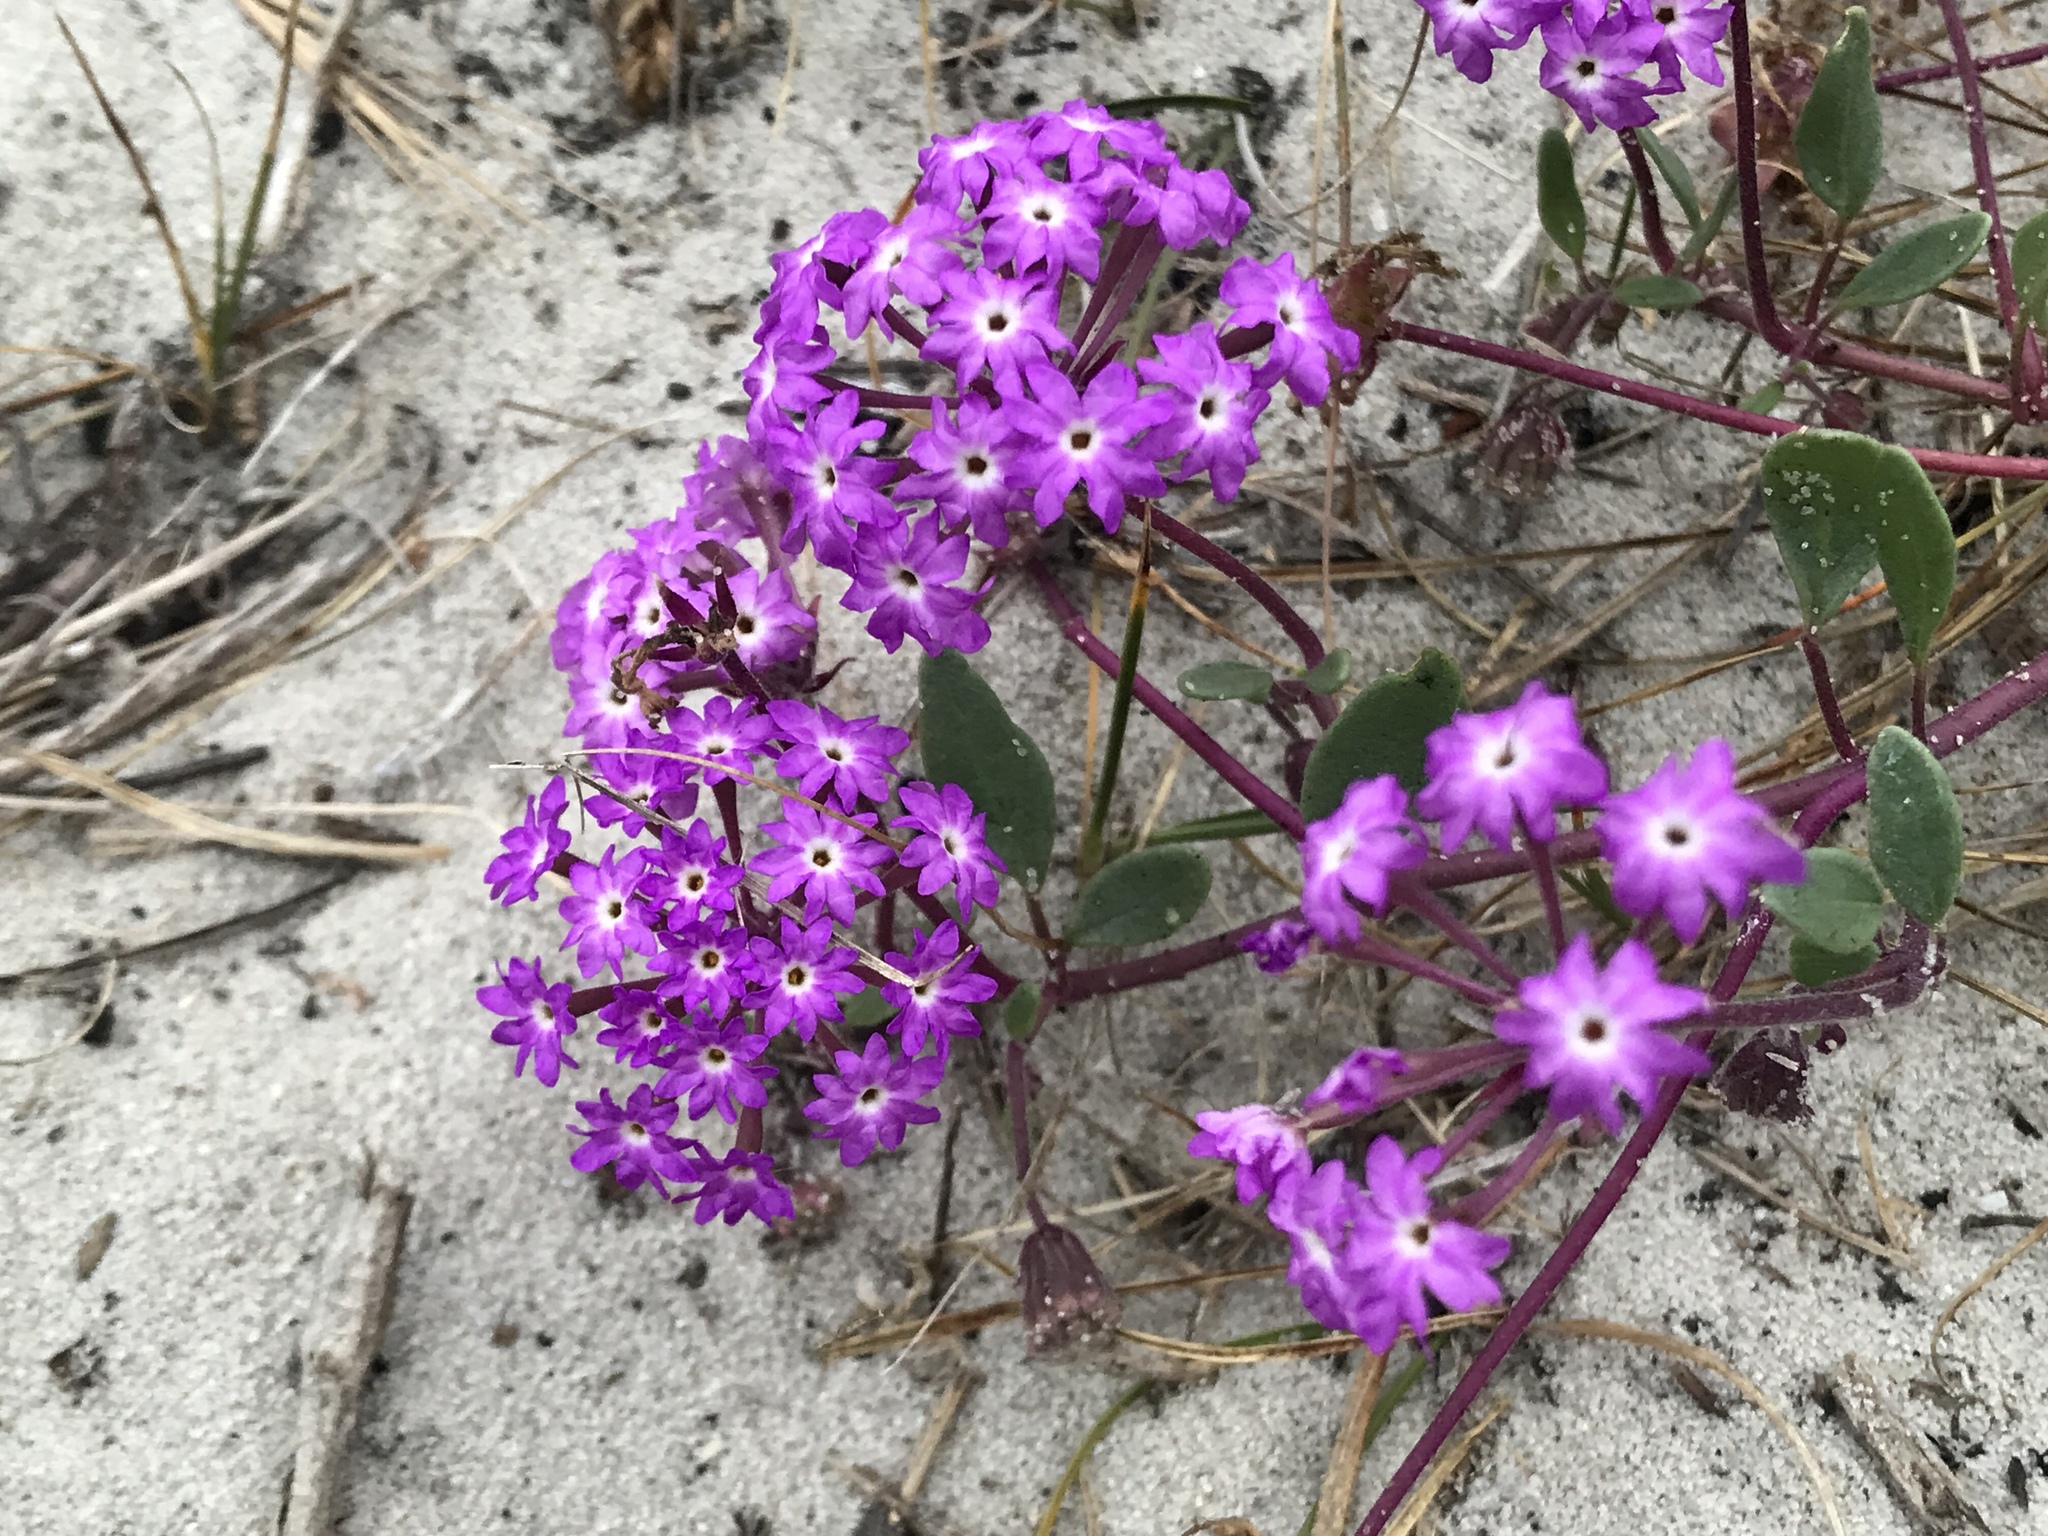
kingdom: Plantae
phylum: Tracheophyta
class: Magnoliopsida
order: Caryophyllales
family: Nyctaginaceae
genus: Abronia
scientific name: Abronia umbellata
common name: Sand-verbena
